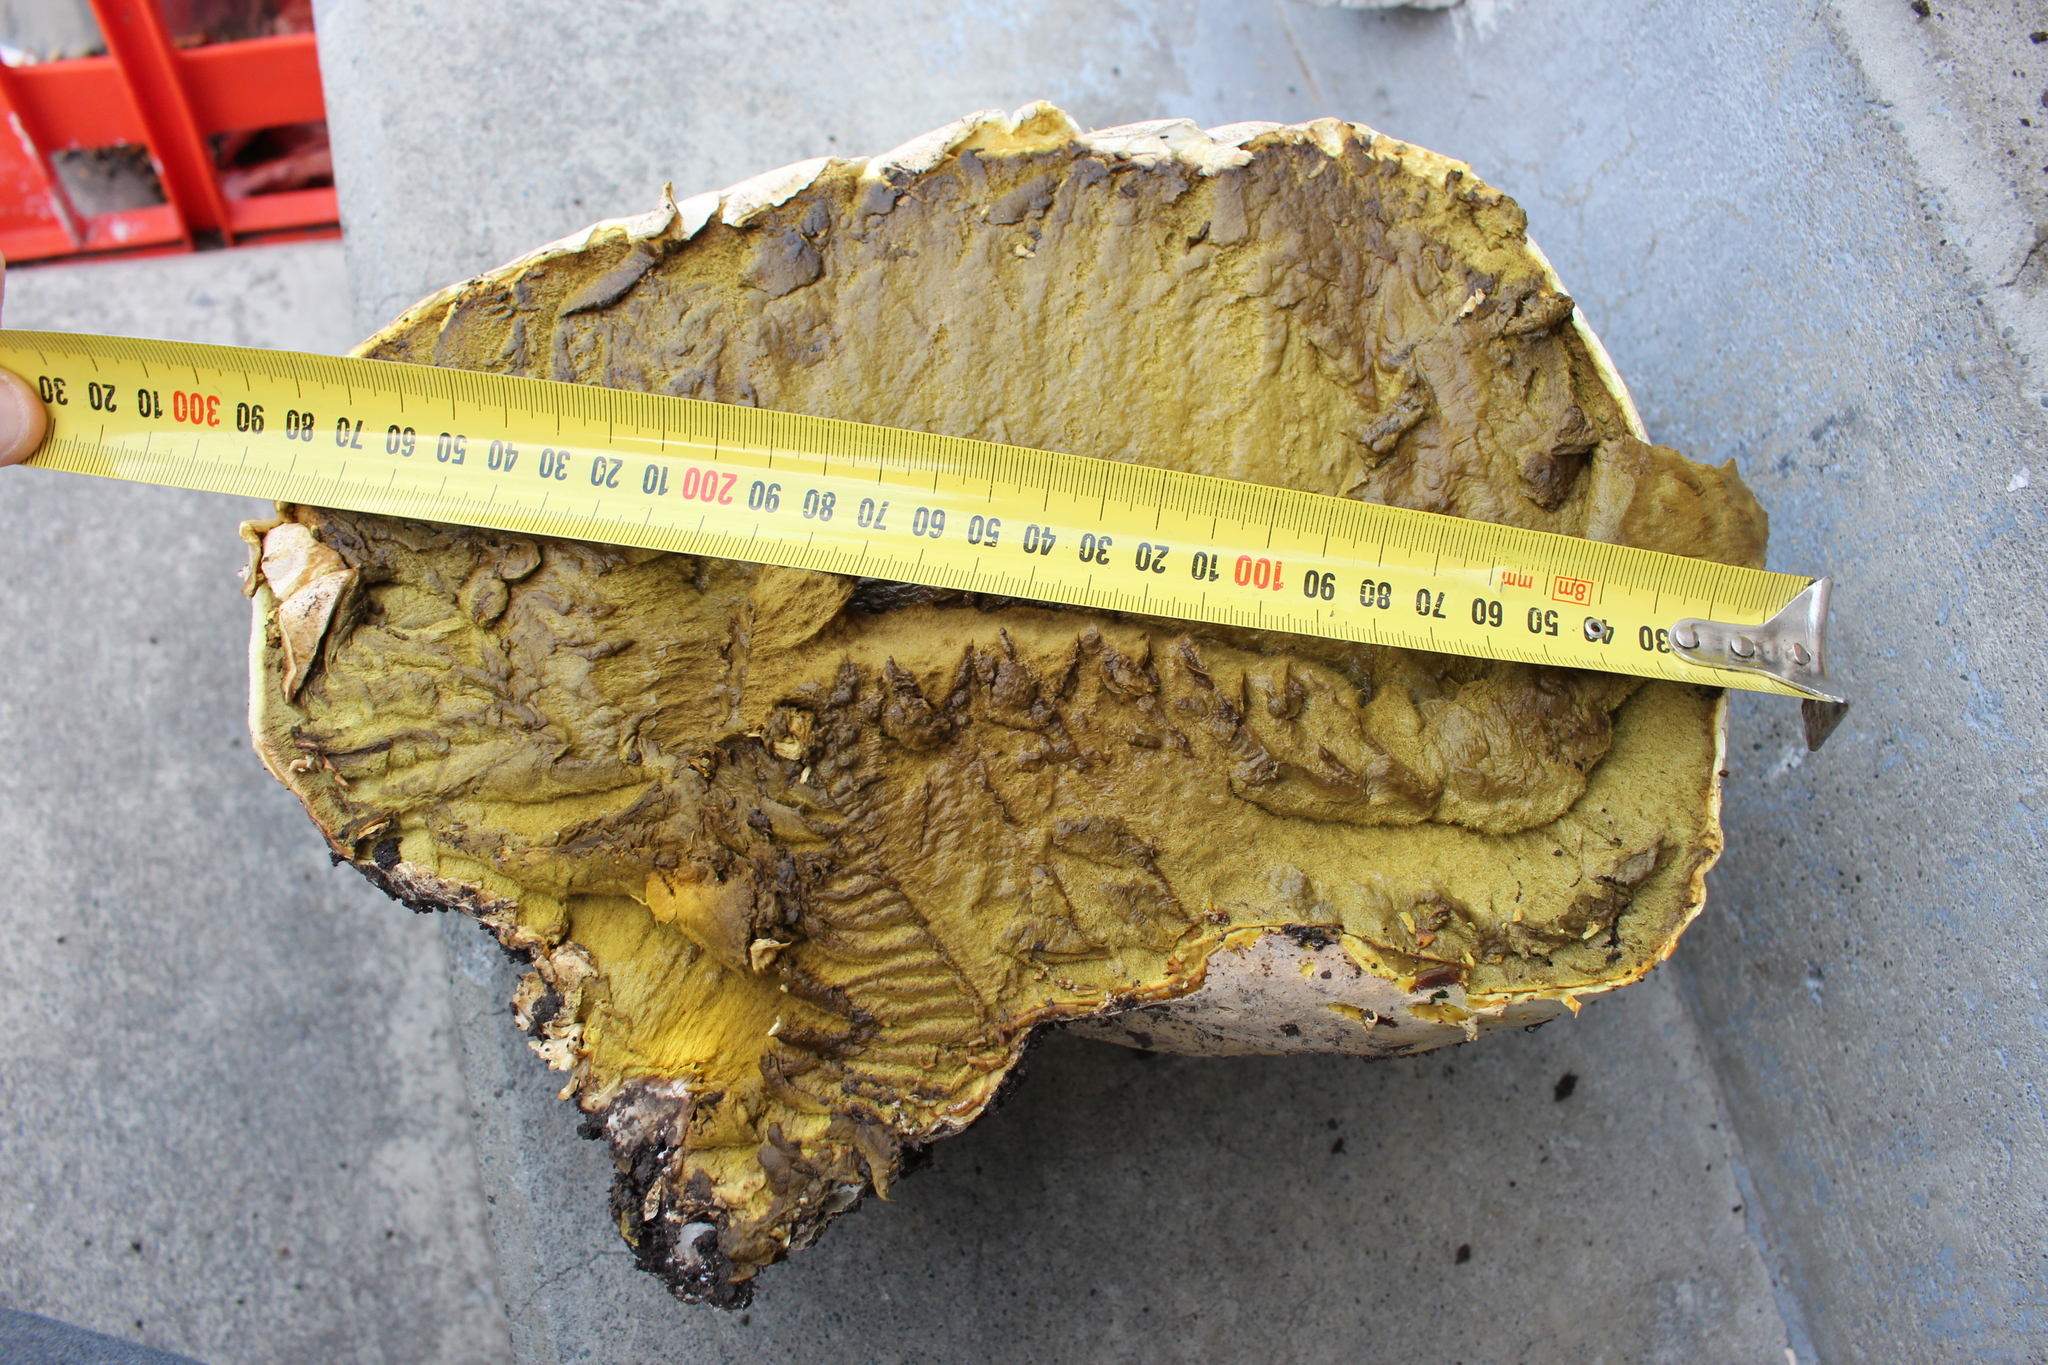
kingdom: Fungi
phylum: Basidiomycota
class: Agaricomycetes
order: Agaricales
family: Lycoperdaceae
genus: Calvatia
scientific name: Calvatia gigantea
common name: Giant puffball
